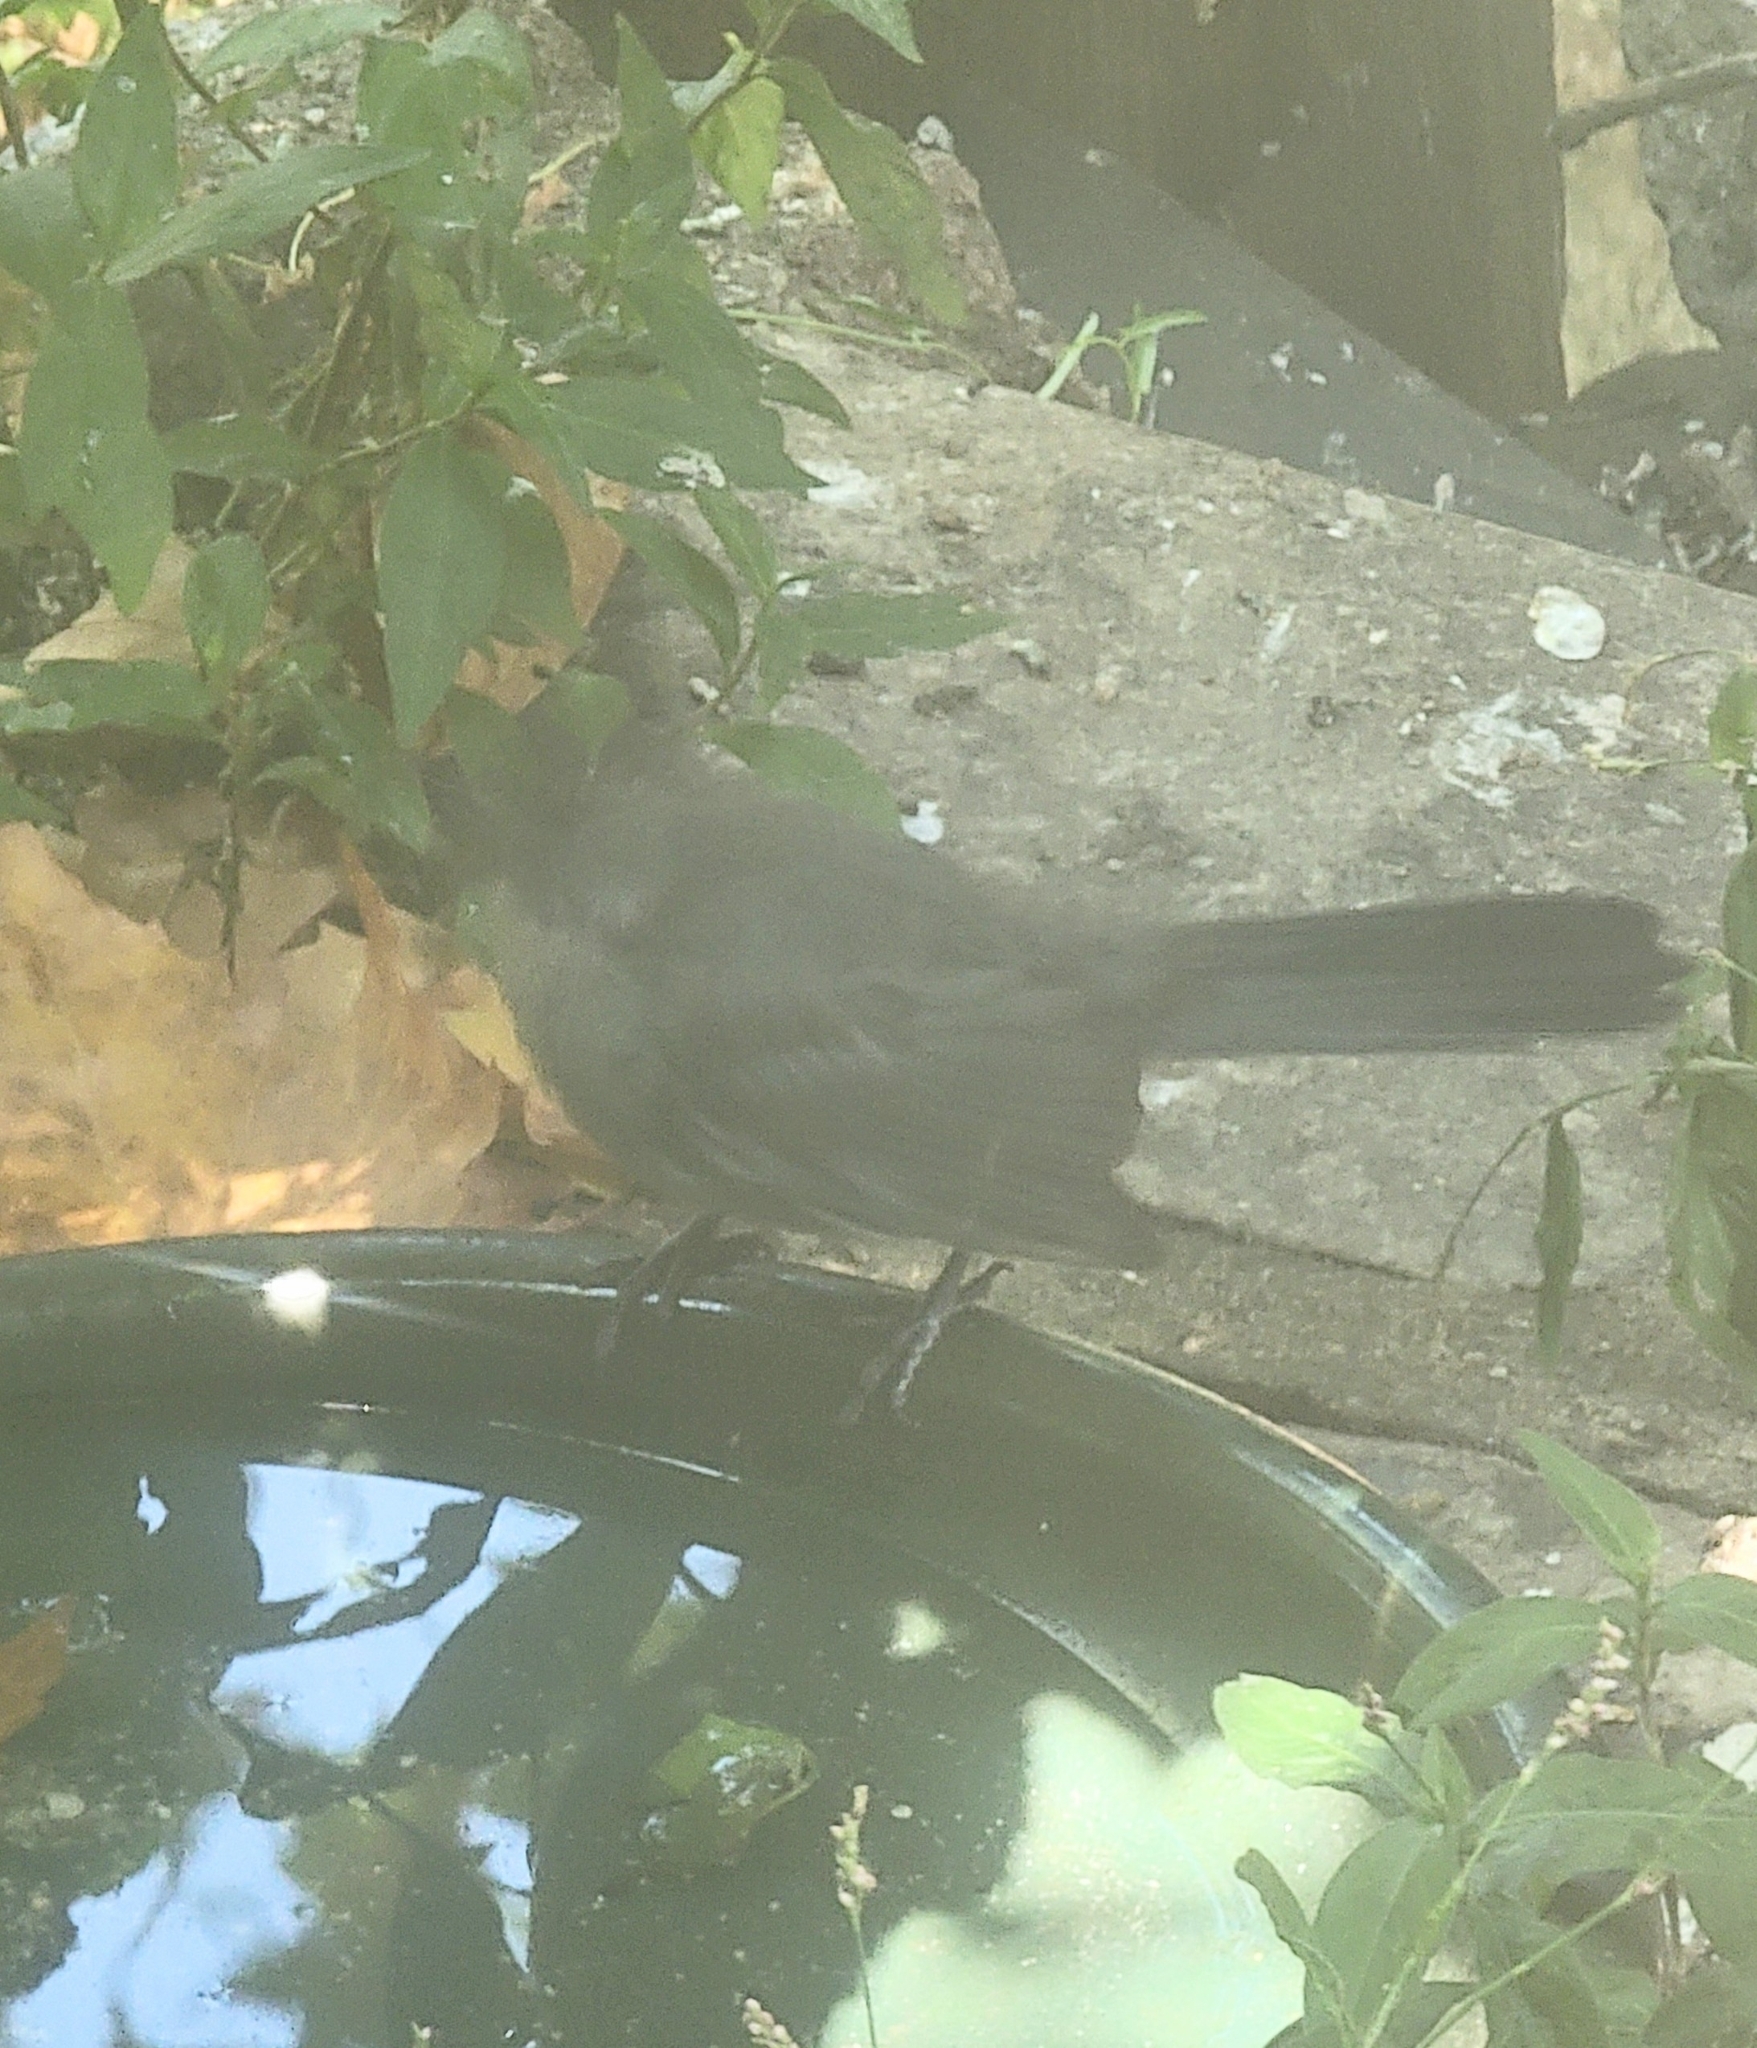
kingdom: Animalia
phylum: Chordata
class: Aves
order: Passeriformes
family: Mimidae
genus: Dumetella
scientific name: Dumetella carolinensis
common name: Gray catbird
